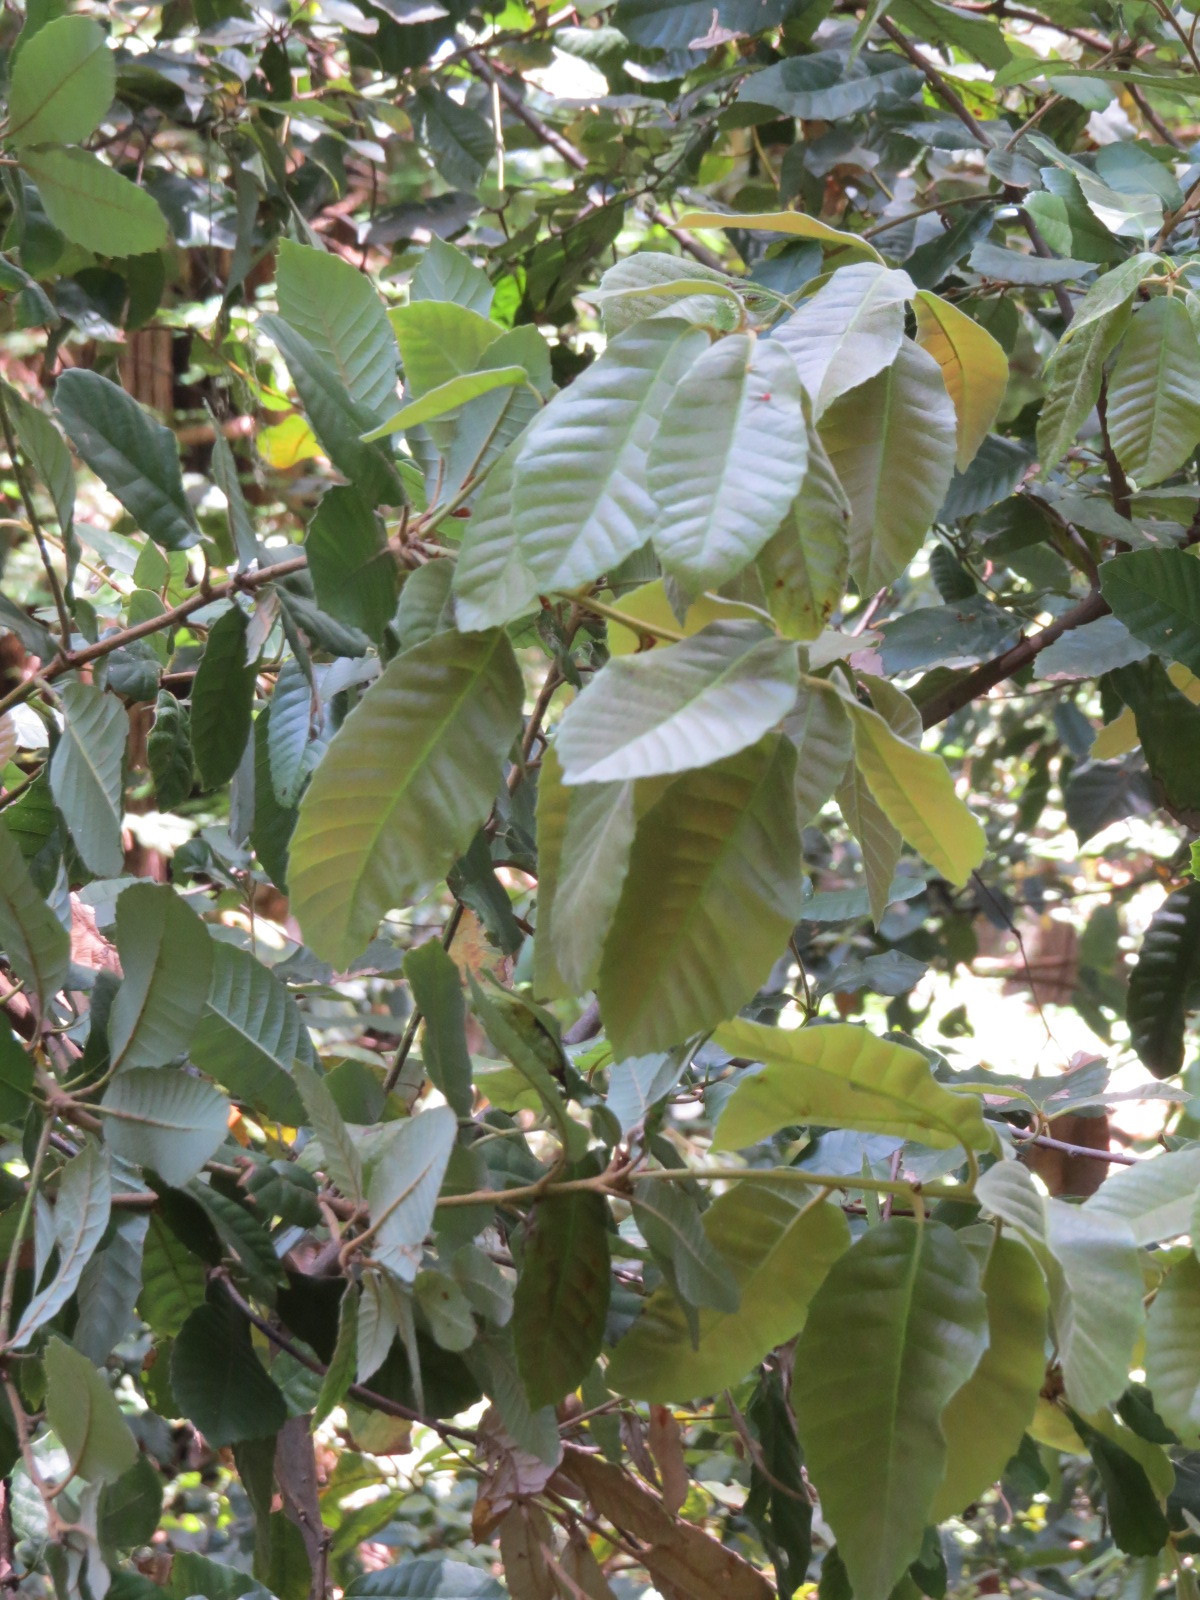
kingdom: Plantae
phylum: Tracheophyta
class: Magnoliopsida
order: Fagales
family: Fagaceae
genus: Notholithocarpus
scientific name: Notholithocarpus densiflorus
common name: Tan bark oak
